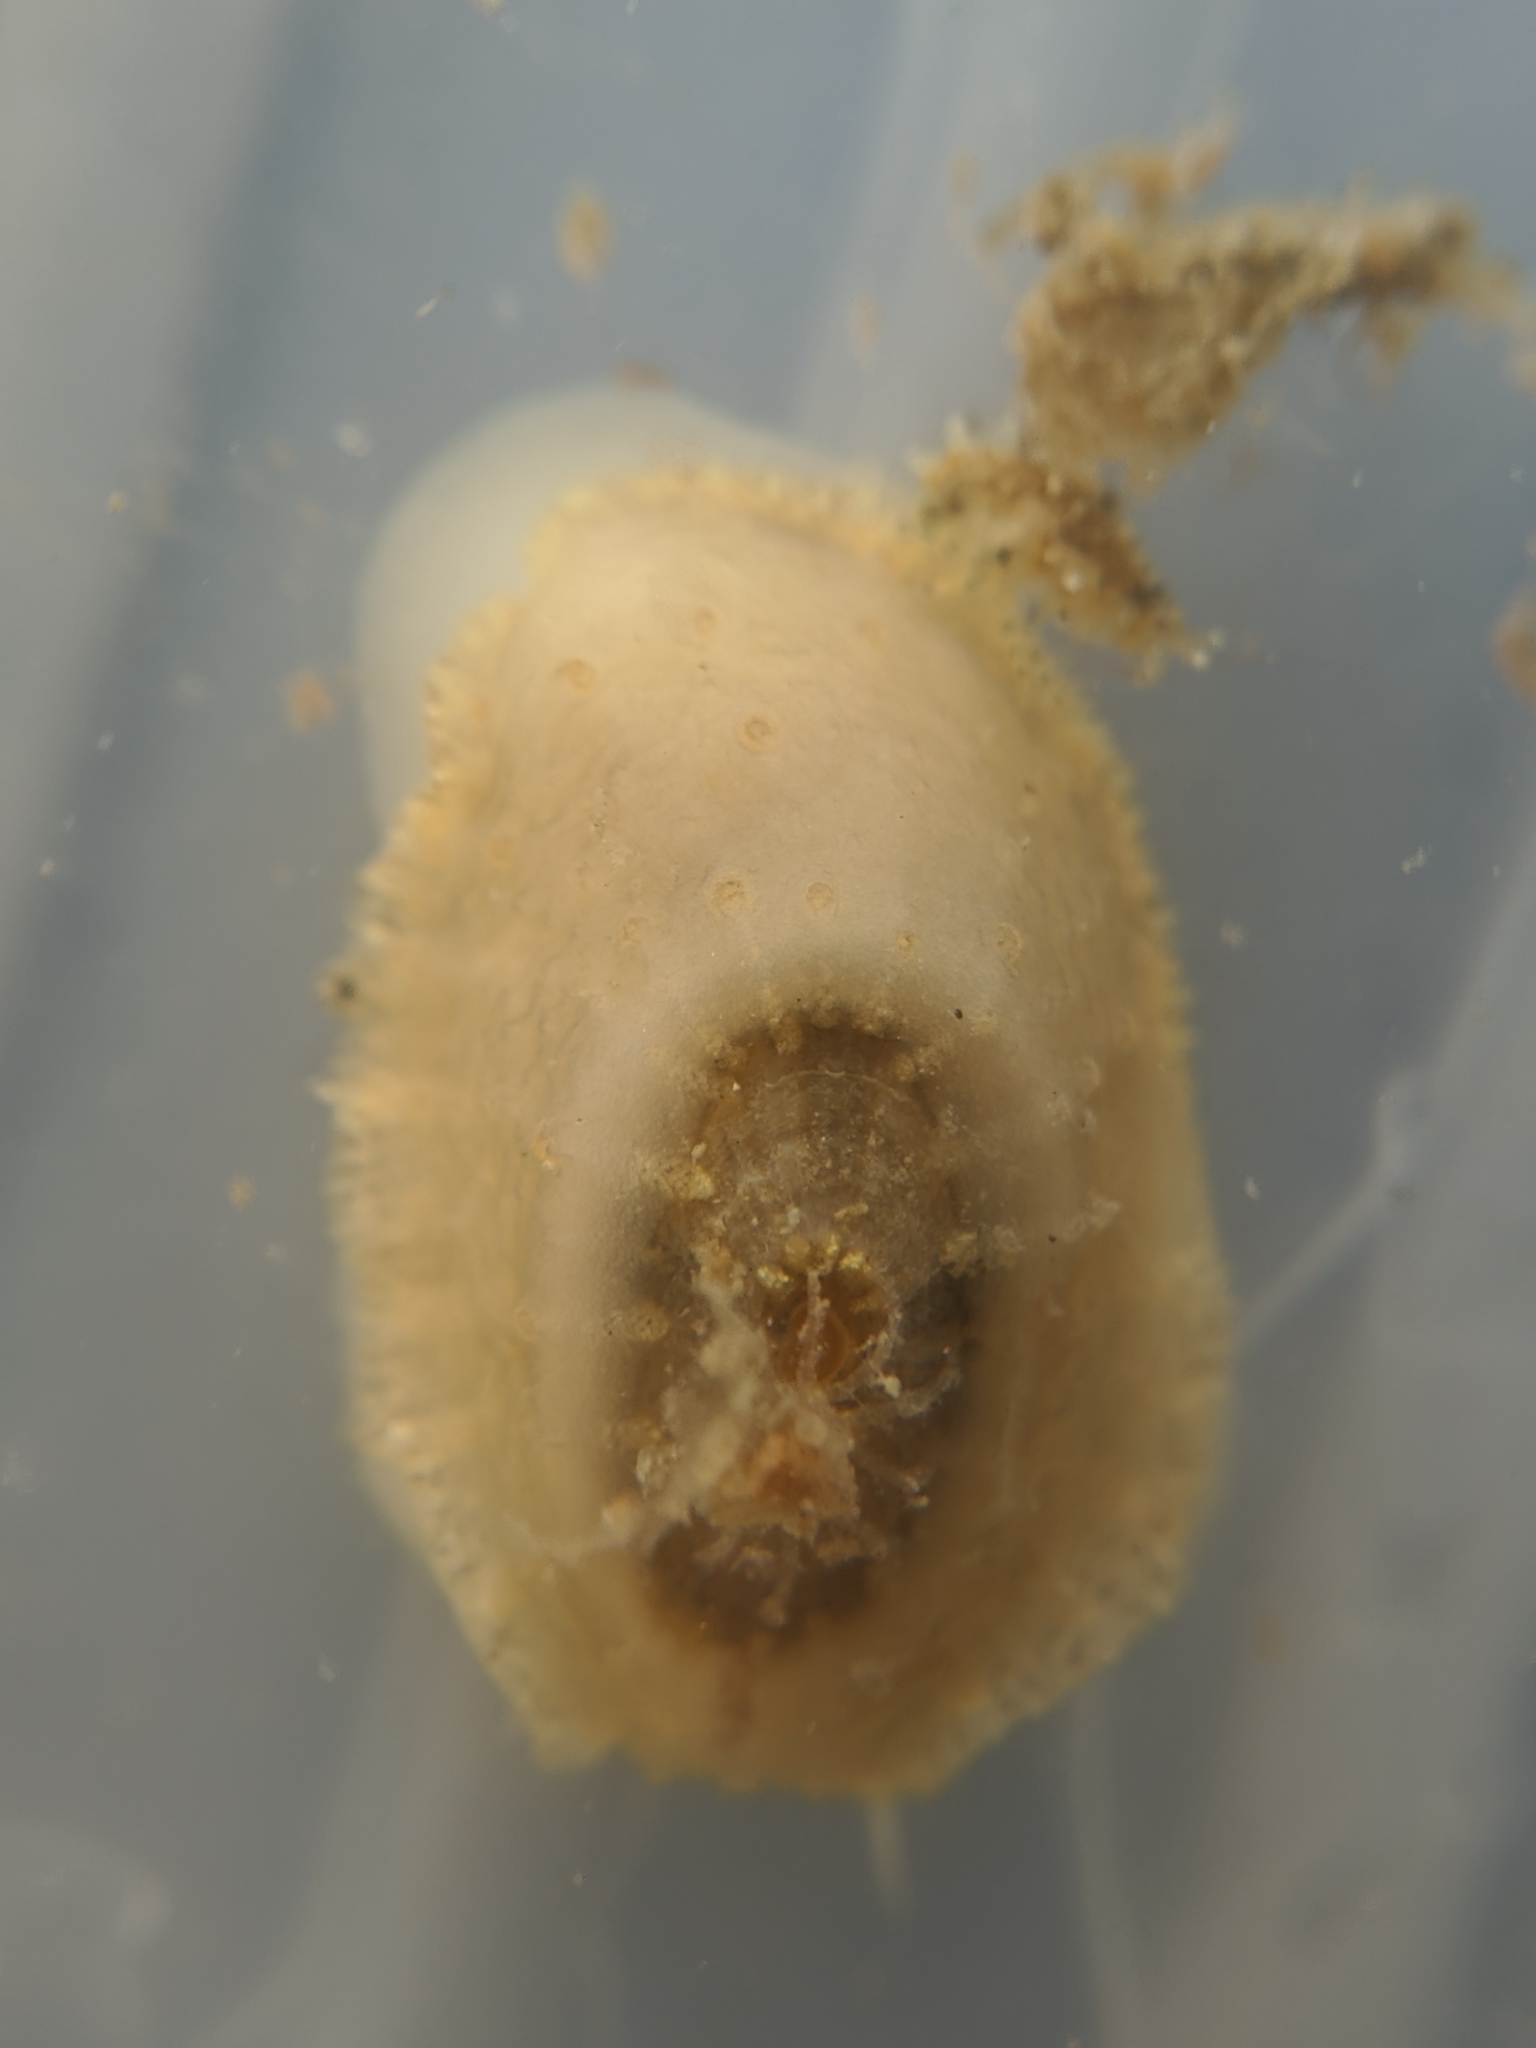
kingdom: Animalia
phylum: Mollusca
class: Gastropoda
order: Lepetellida
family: Fissurellidae
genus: Fissurellidea
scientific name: Fissurellidea bimaculata
